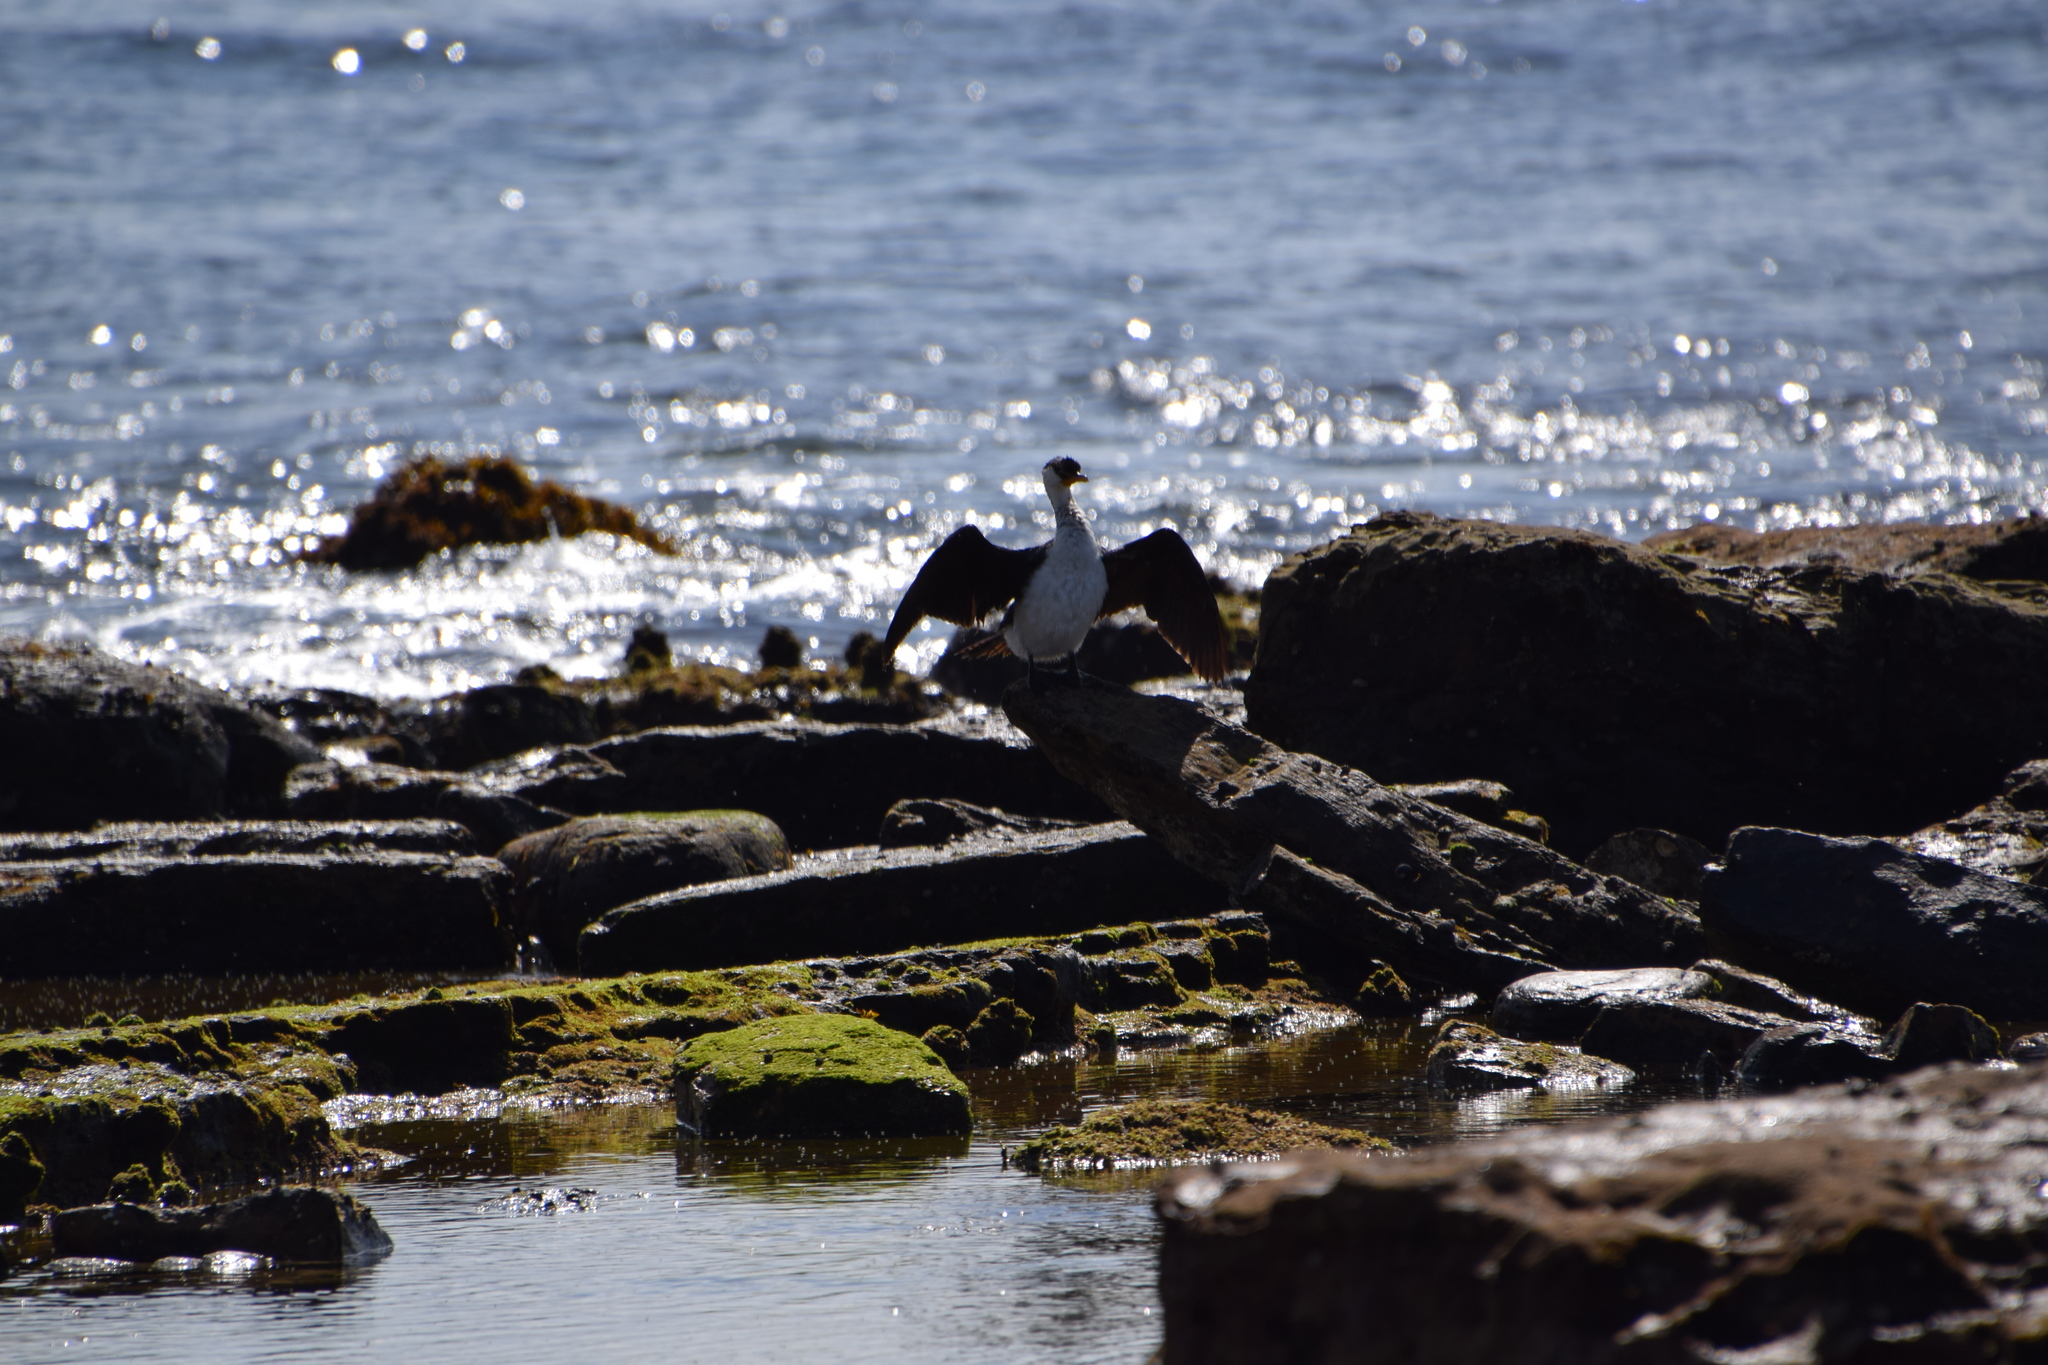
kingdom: Animalia
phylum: Chordata
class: Aves
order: Suliformes
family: Phalacrocoracidae
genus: Microcarbo
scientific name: Microcarbo melanoleucos
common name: Little pied cormorant
